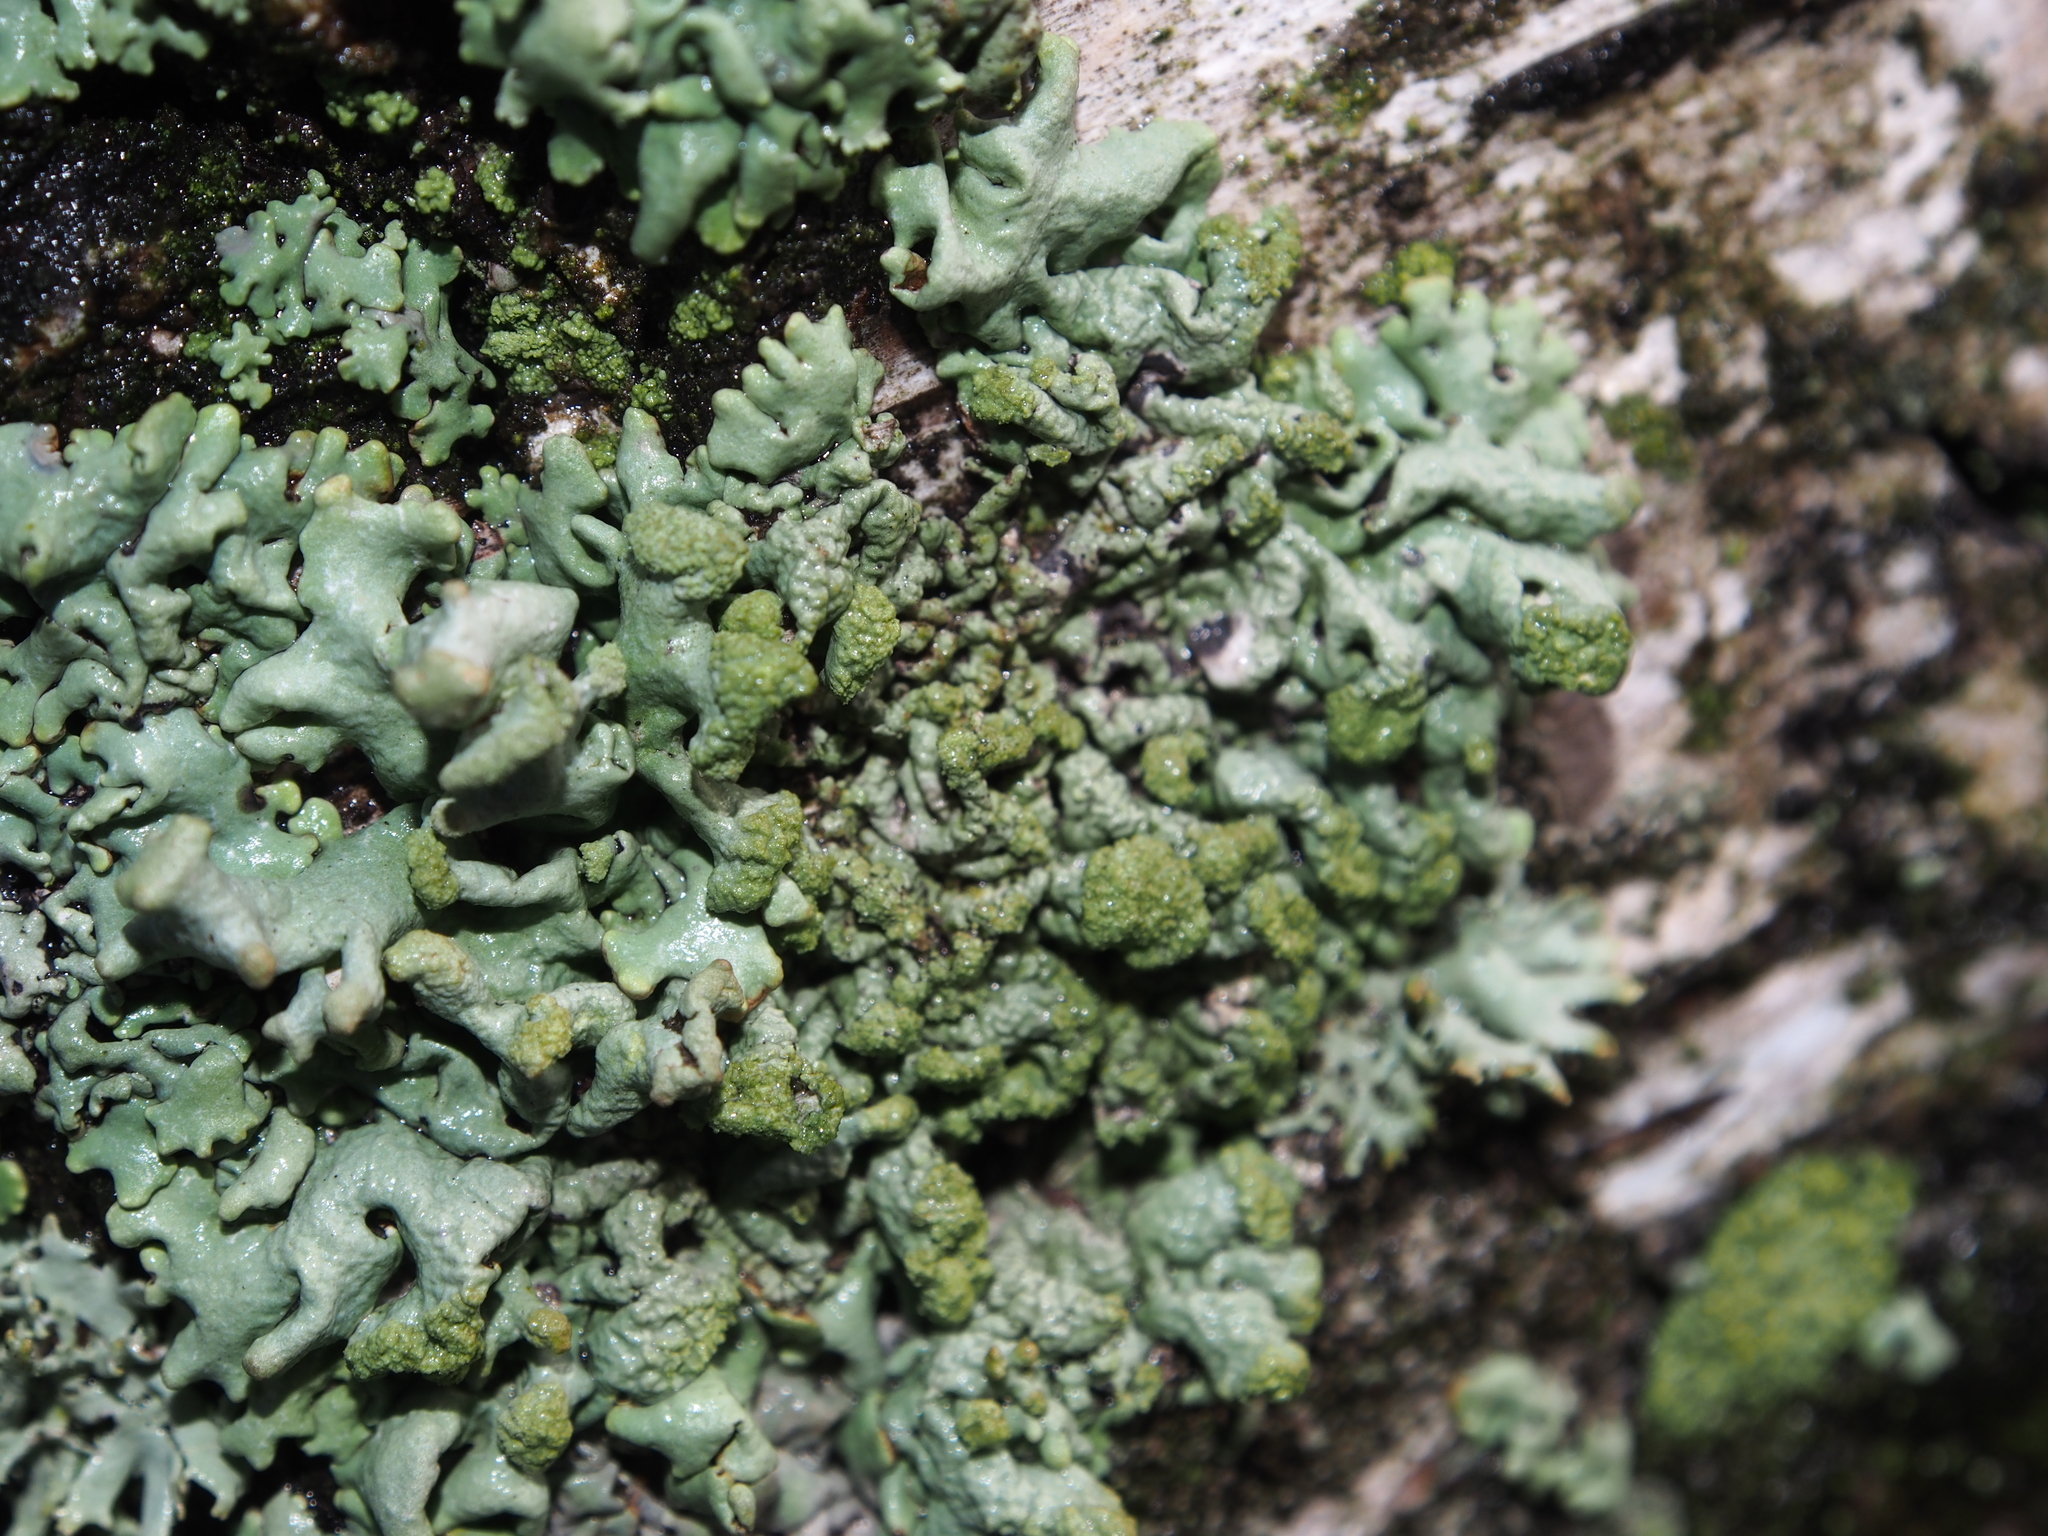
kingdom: Fungi
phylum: Ascomycota
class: Lecanoromycetes
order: Lecanorales
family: Parmeliaceae
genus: Hypogymnia
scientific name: Hypogymnia tubulosa
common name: Powder-headed tube lichen
